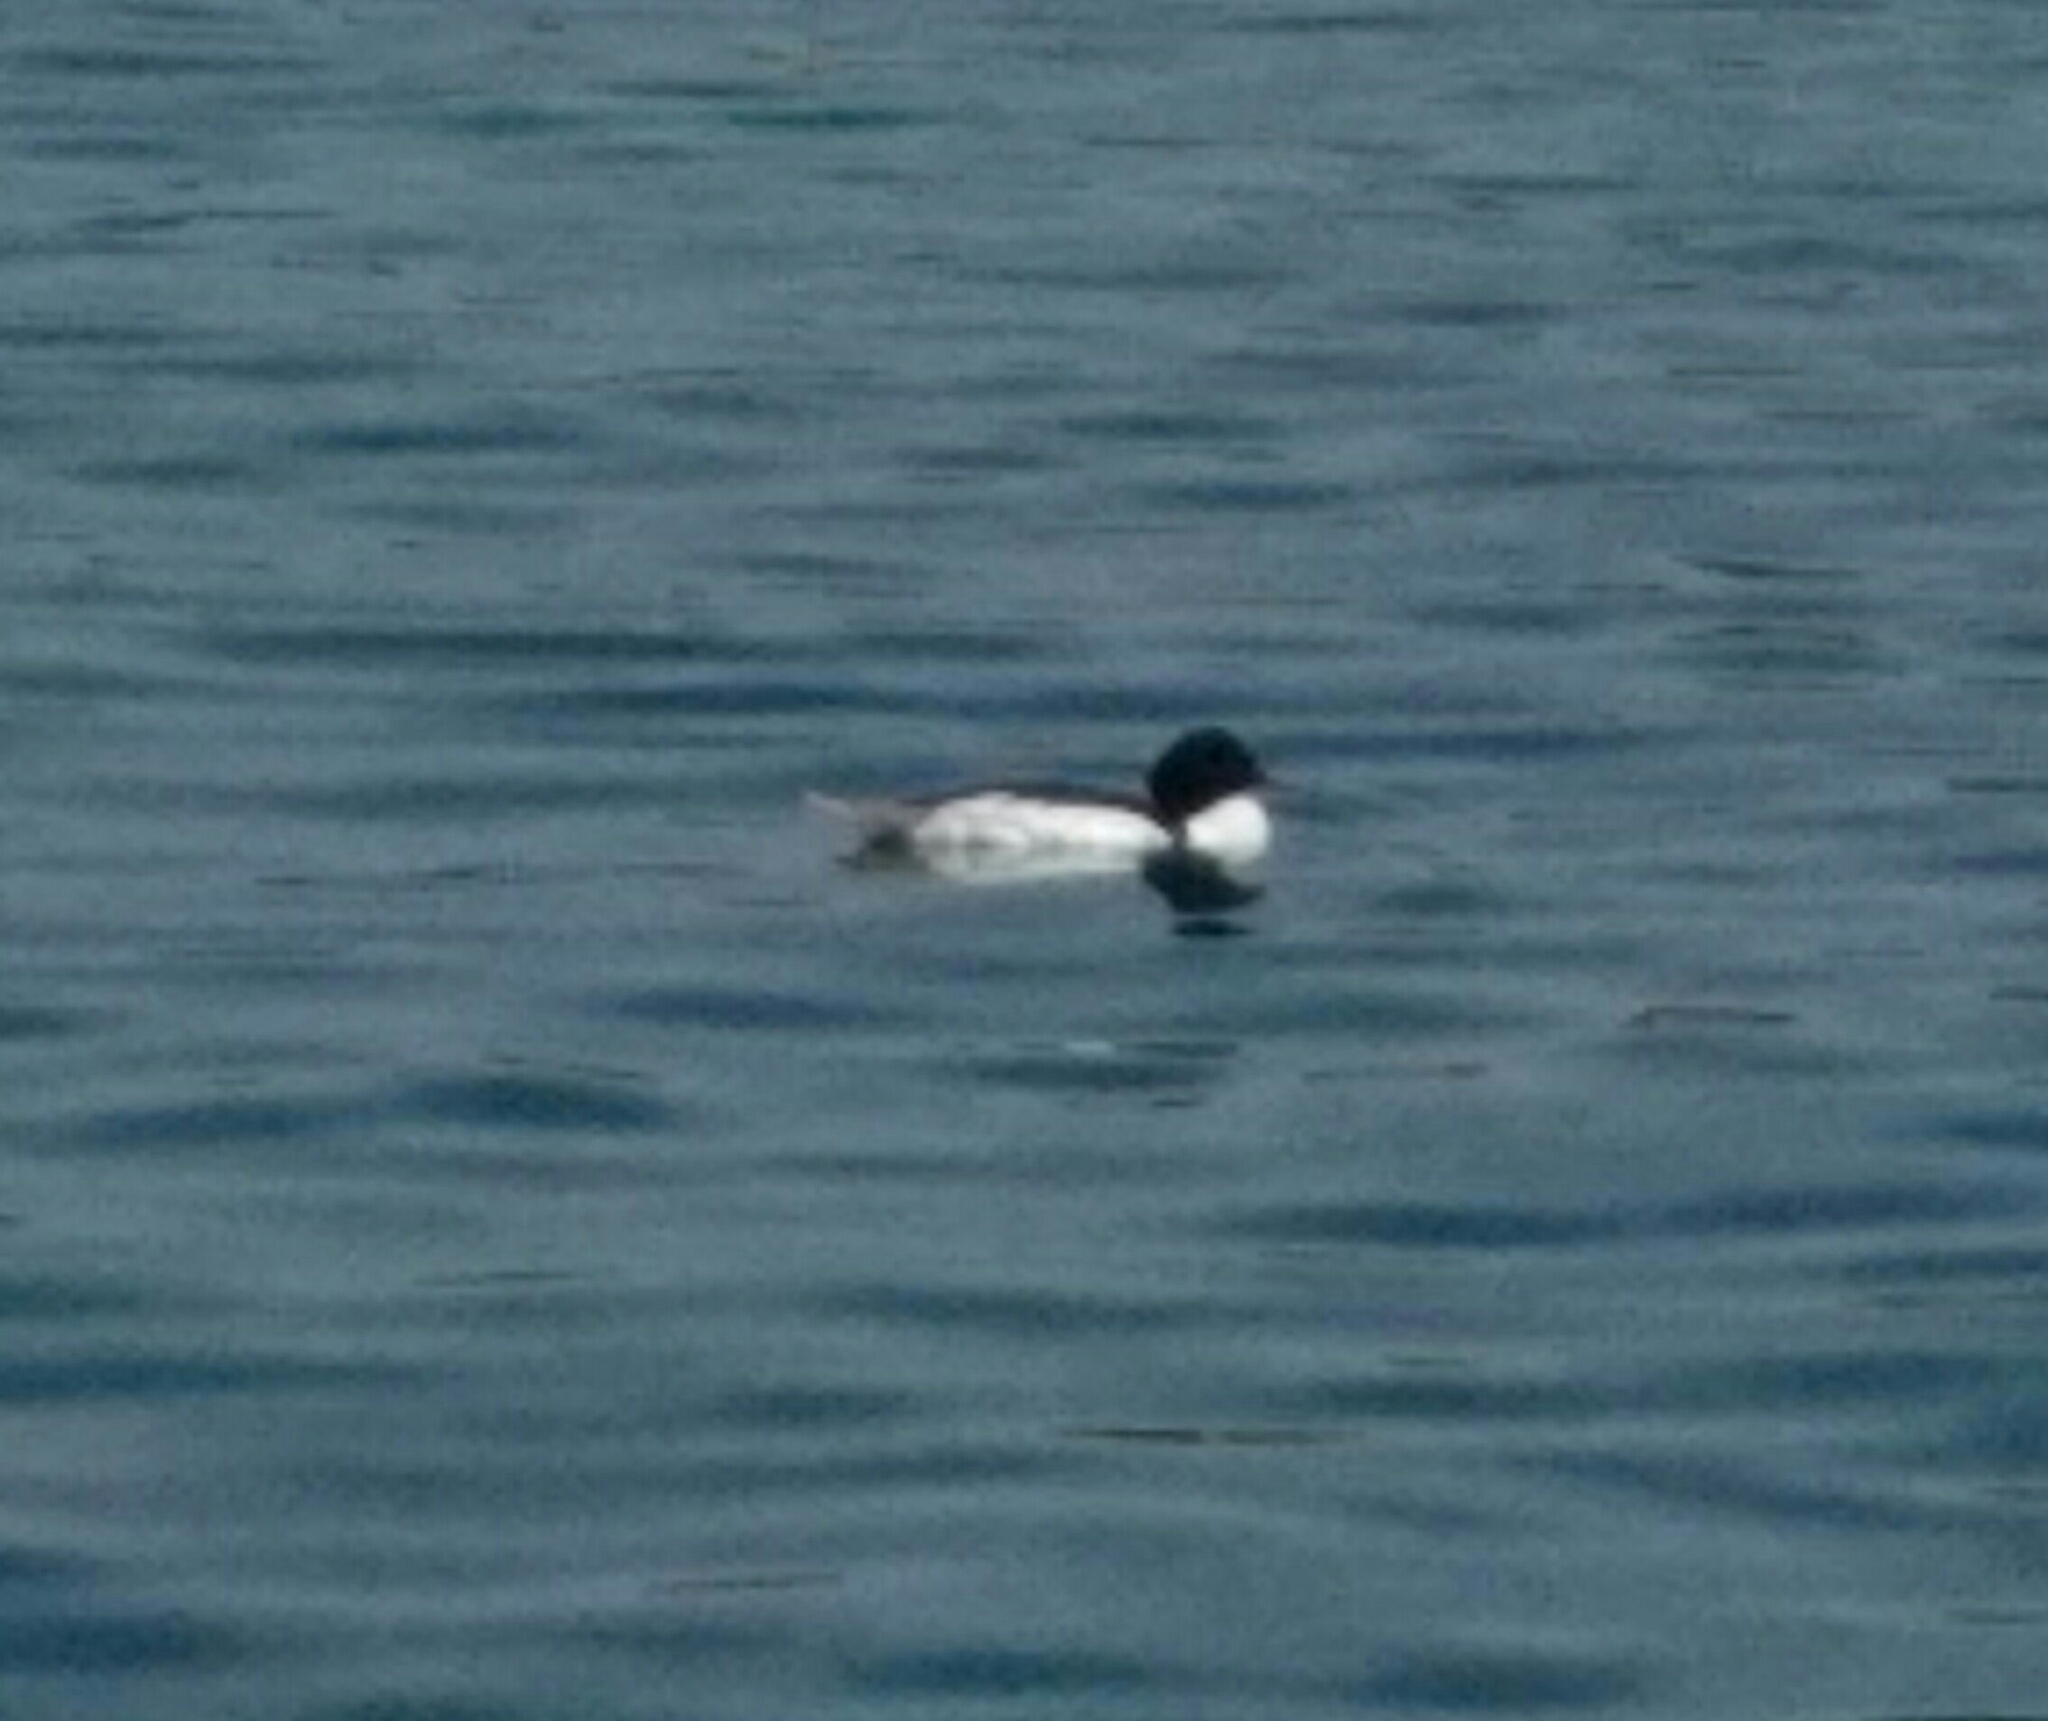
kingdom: Animalia
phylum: Chordata
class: Aves
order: Anseriformes
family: Anatidae
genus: Mergus
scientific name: Mergus merganser
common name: Common merganser
